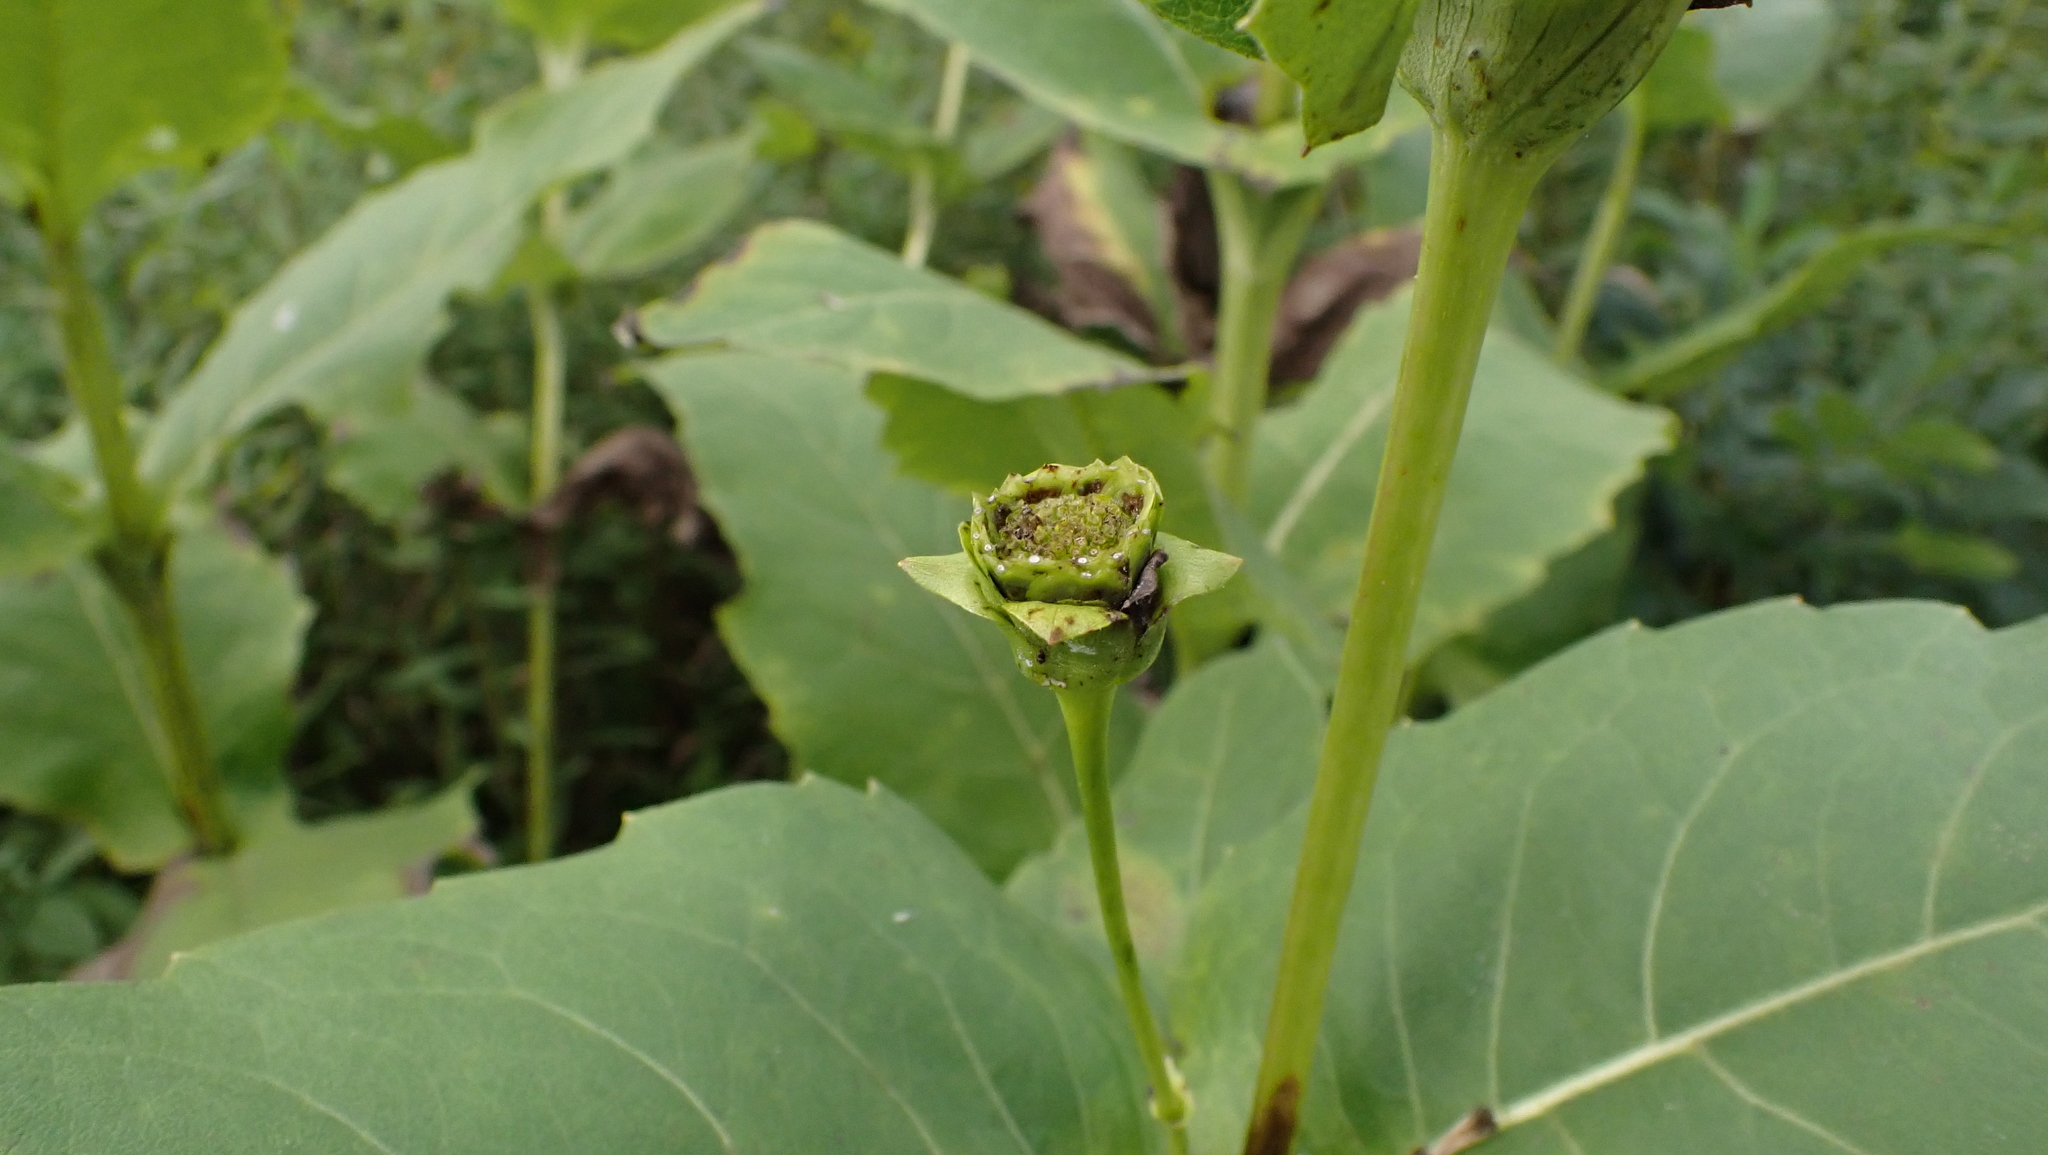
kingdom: Plantae
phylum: Tracheophyta
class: Magnoliopsida
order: Asterales
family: Asteraceae
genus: Silphium
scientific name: Silphium perfoliatum
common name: Cup-plant
